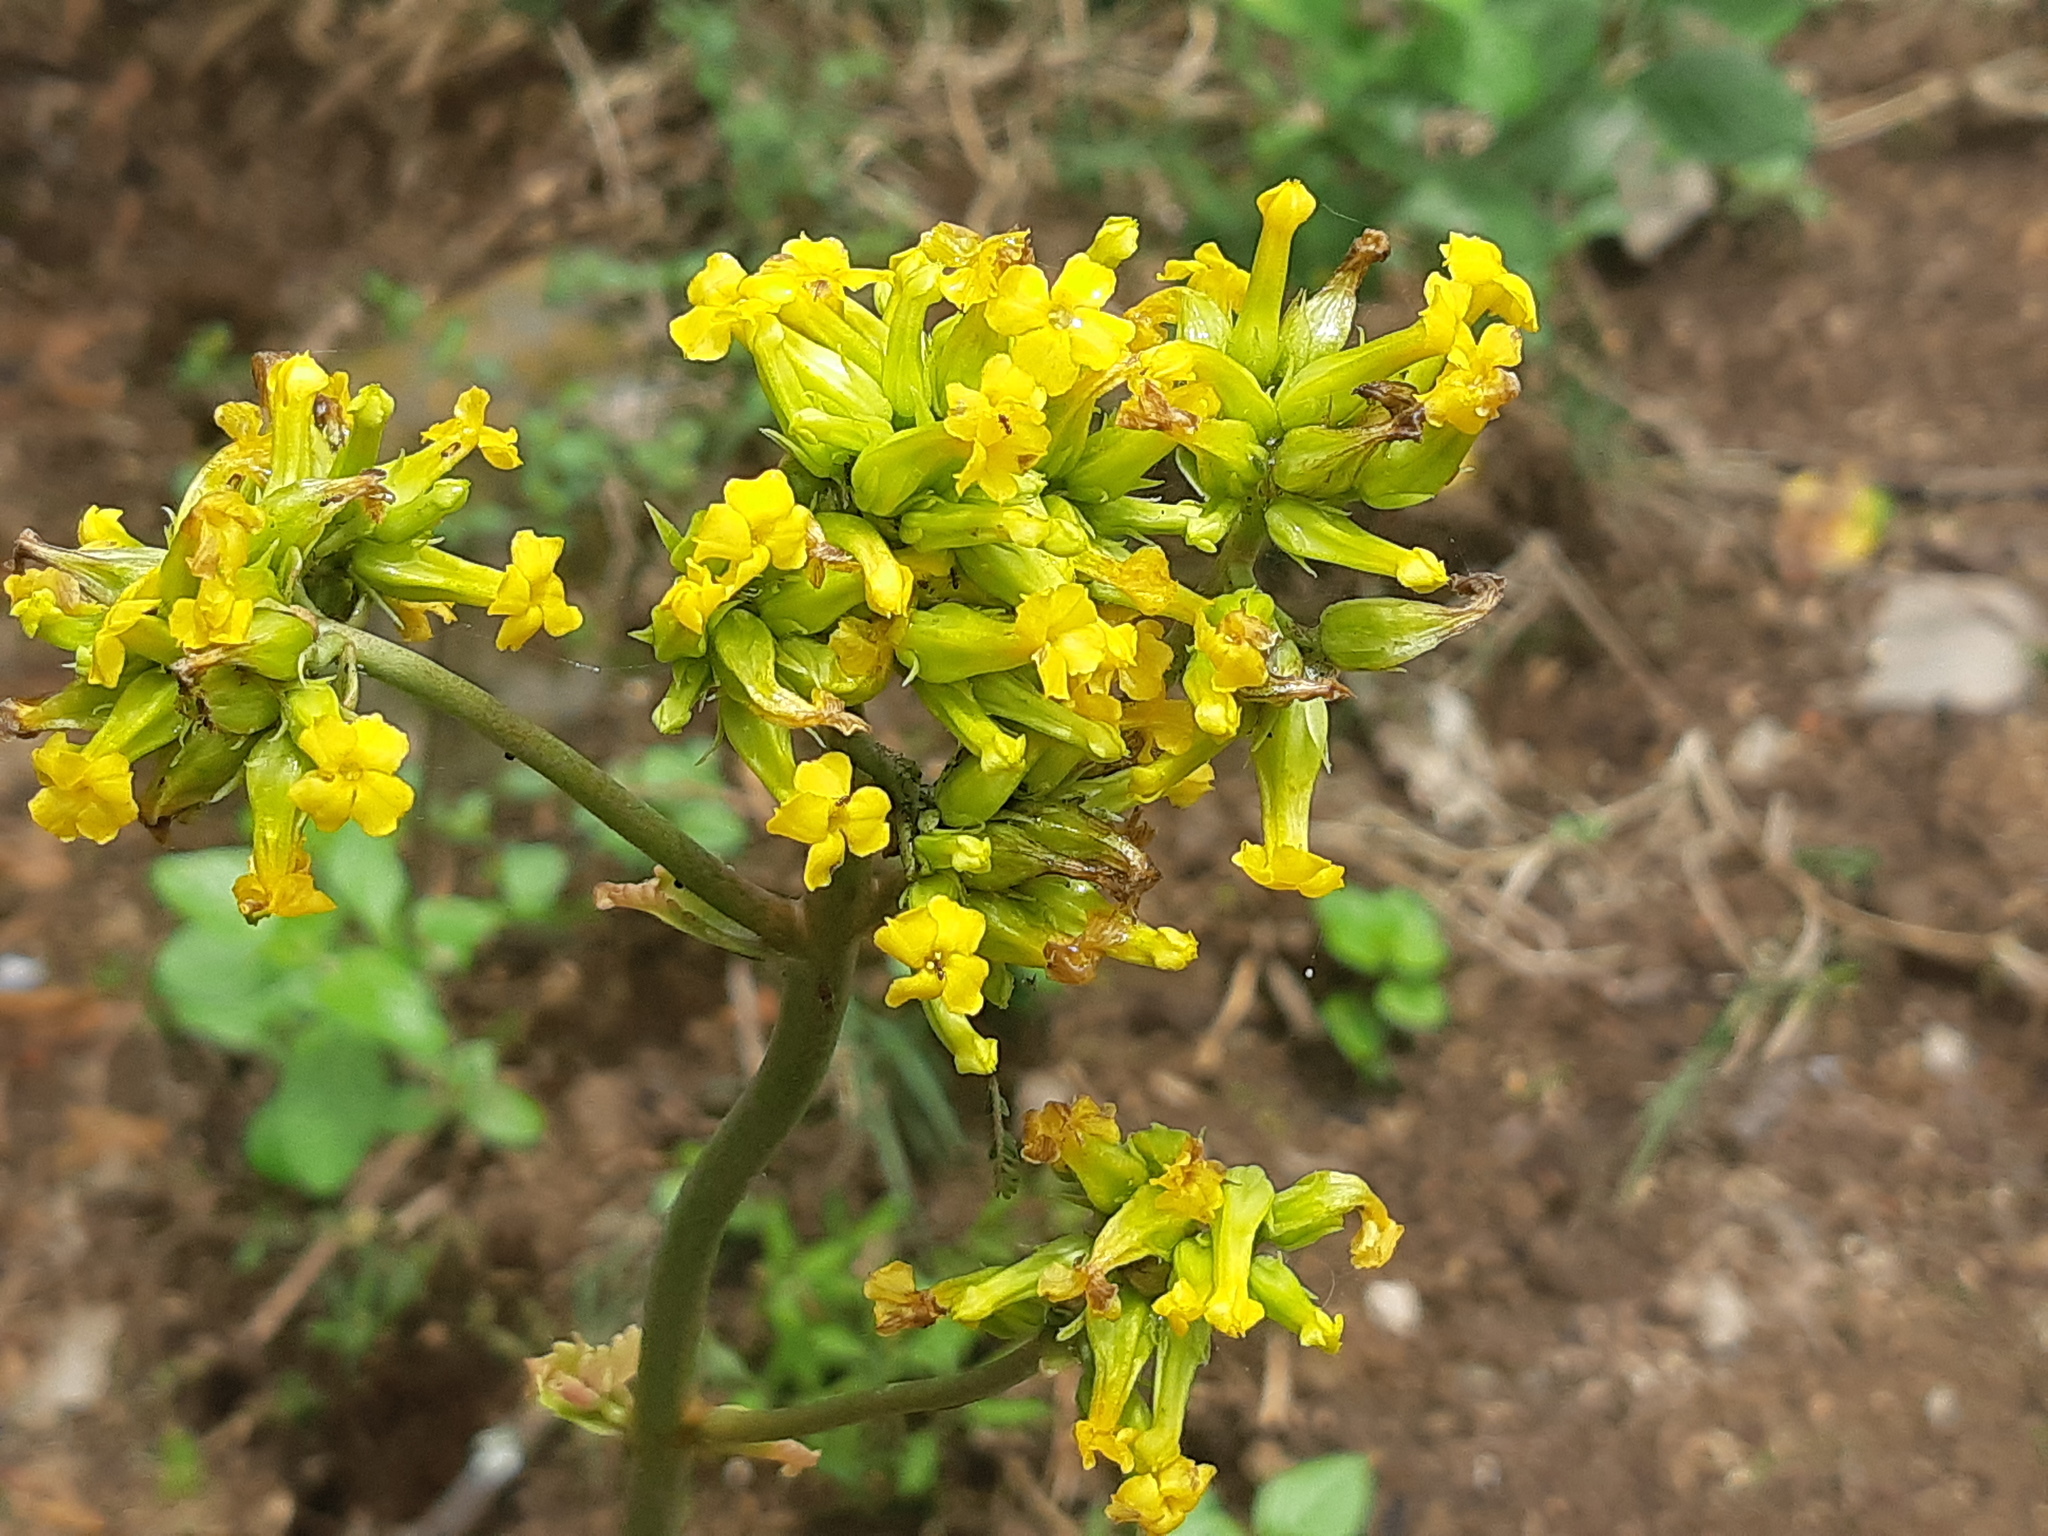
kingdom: Plantae
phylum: Tracheophyta
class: Magnoliopsida
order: Saxifragales
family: Crassulaceae
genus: Kalanchoe
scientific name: Kalanchoe densiflora
